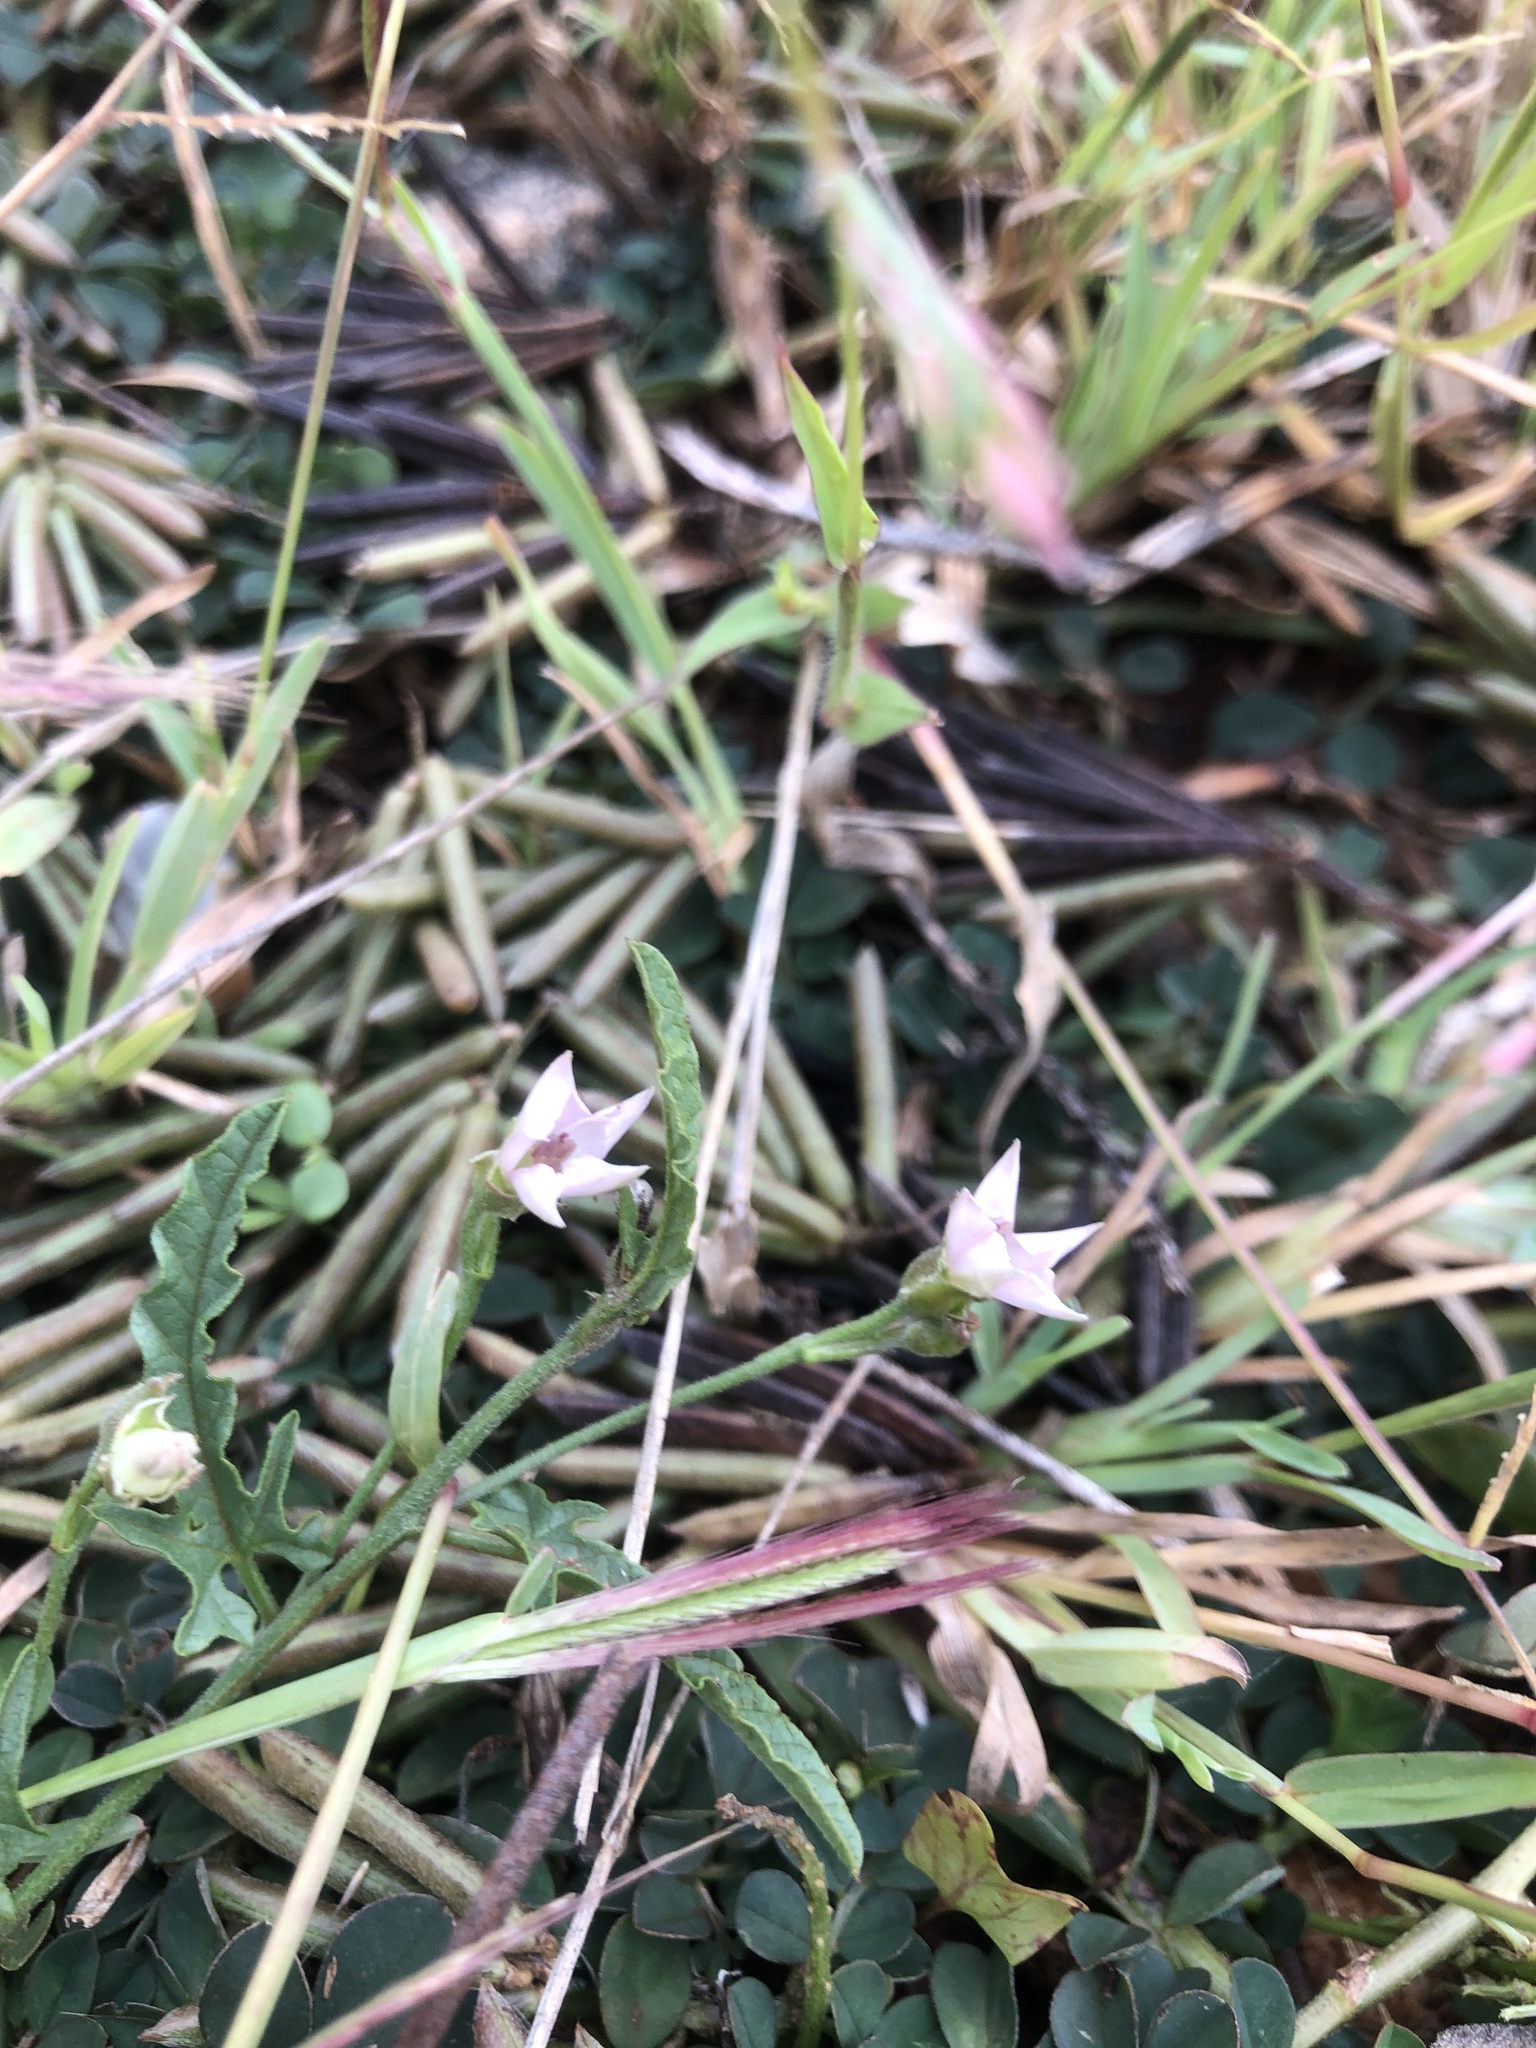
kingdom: Plantae
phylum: Tracheophyta
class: Magnoliopsida
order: Solanales
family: Convolvulaceae
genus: Convolvulus
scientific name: Convolvulus sagittatus
